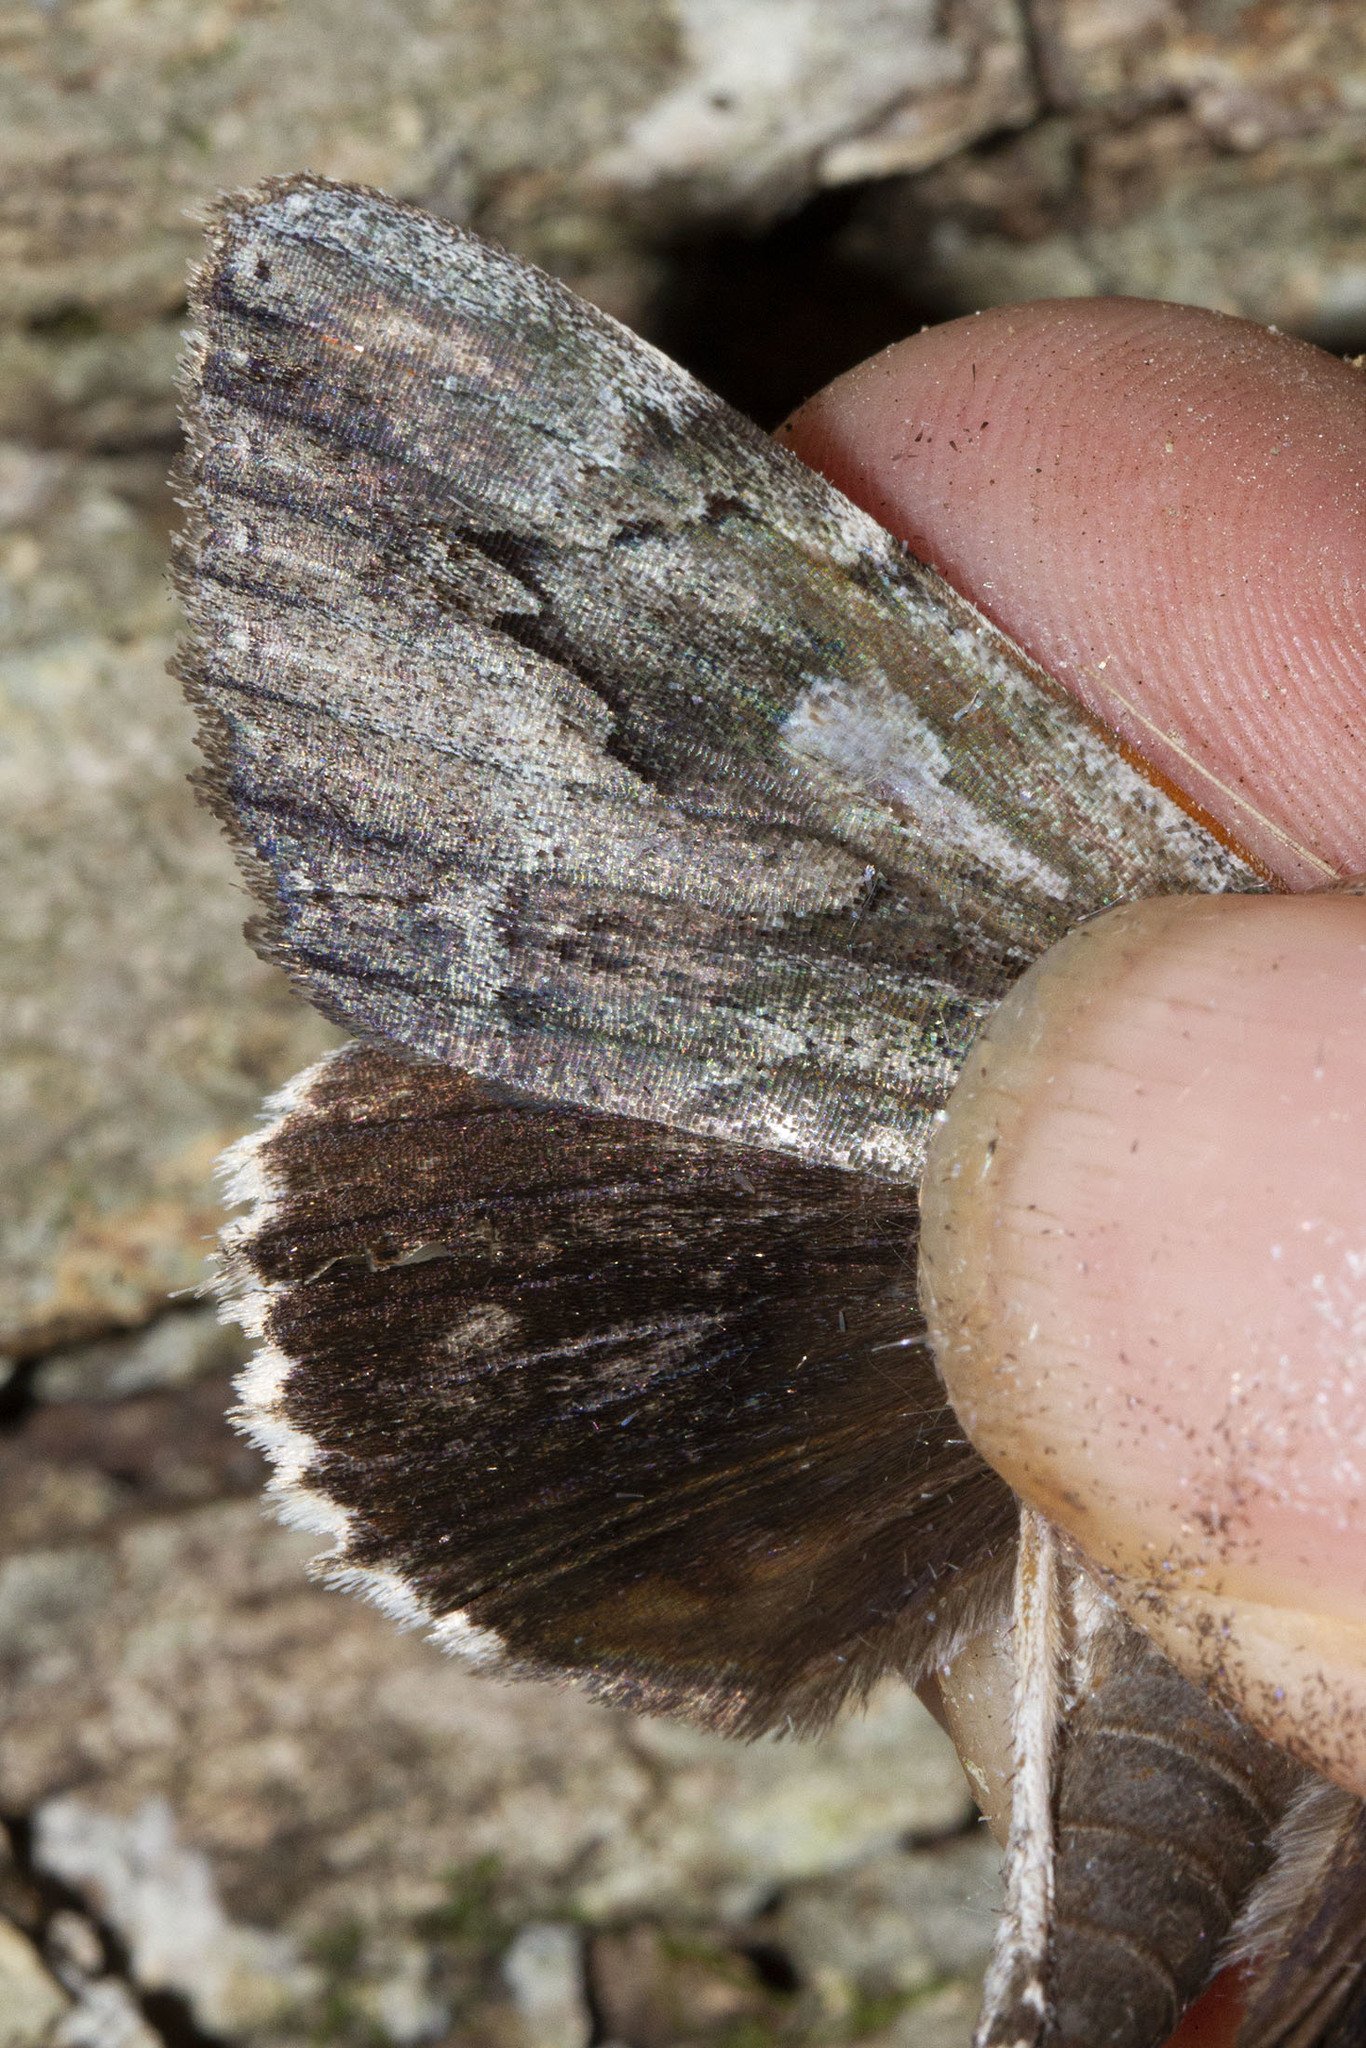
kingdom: Animalia
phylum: Arthropoda
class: Insecta
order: Lepidoptera
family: Erebidae
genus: Catocala
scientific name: Catocala flebilis
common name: Mournful underwing
